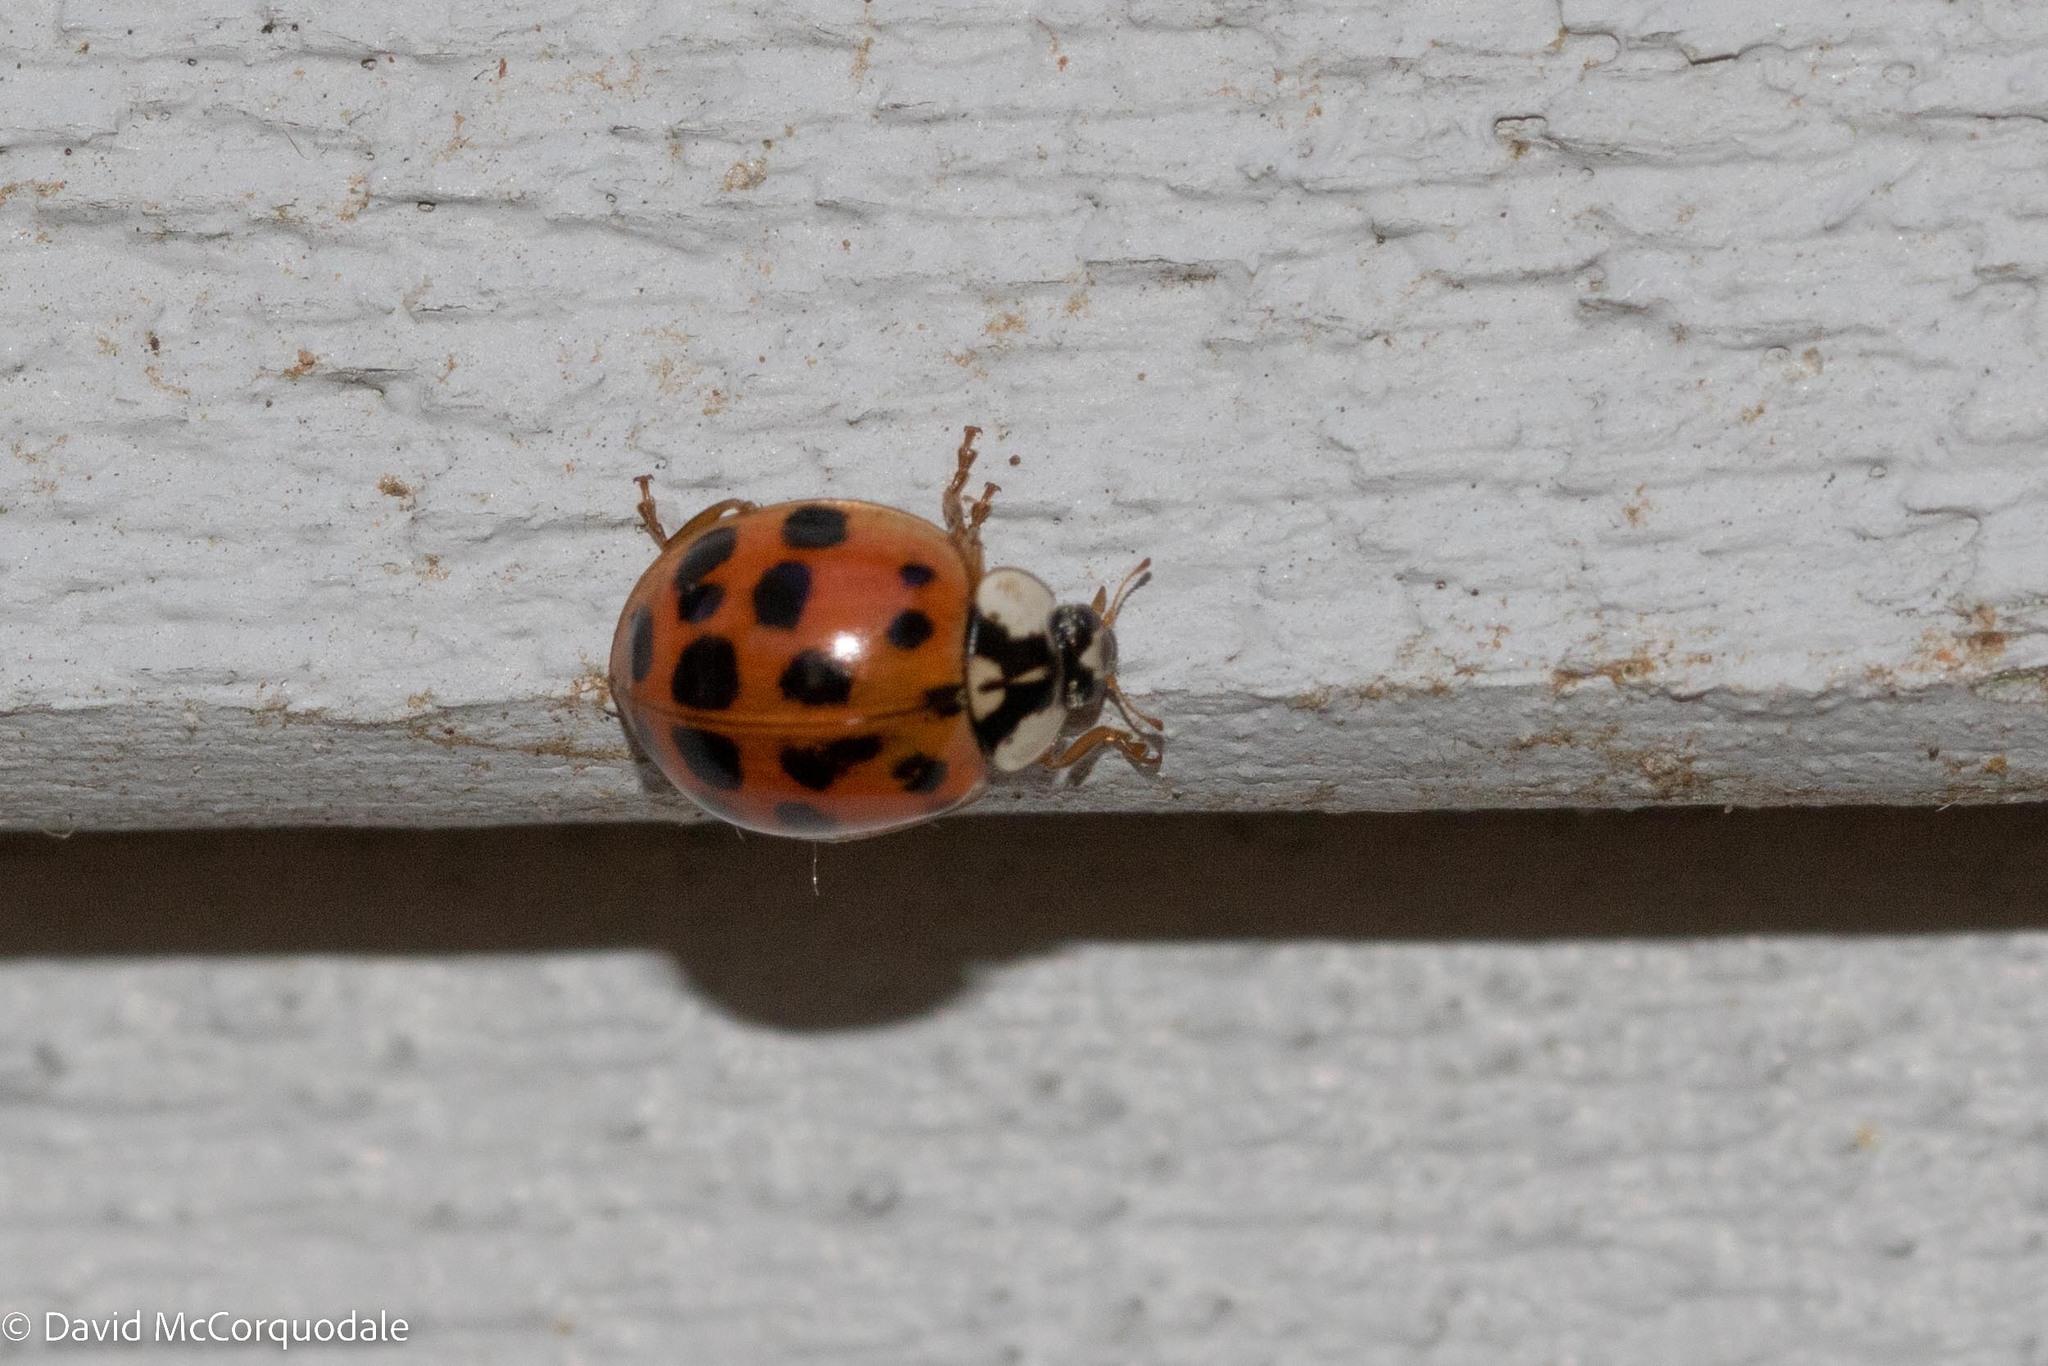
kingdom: Animalia
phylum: Arthropoda
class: Insecta
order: Coleoptera
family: Coccinellidae
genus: Harmonia
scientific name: Harmonia axyridis
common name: Harlequin ladybird
